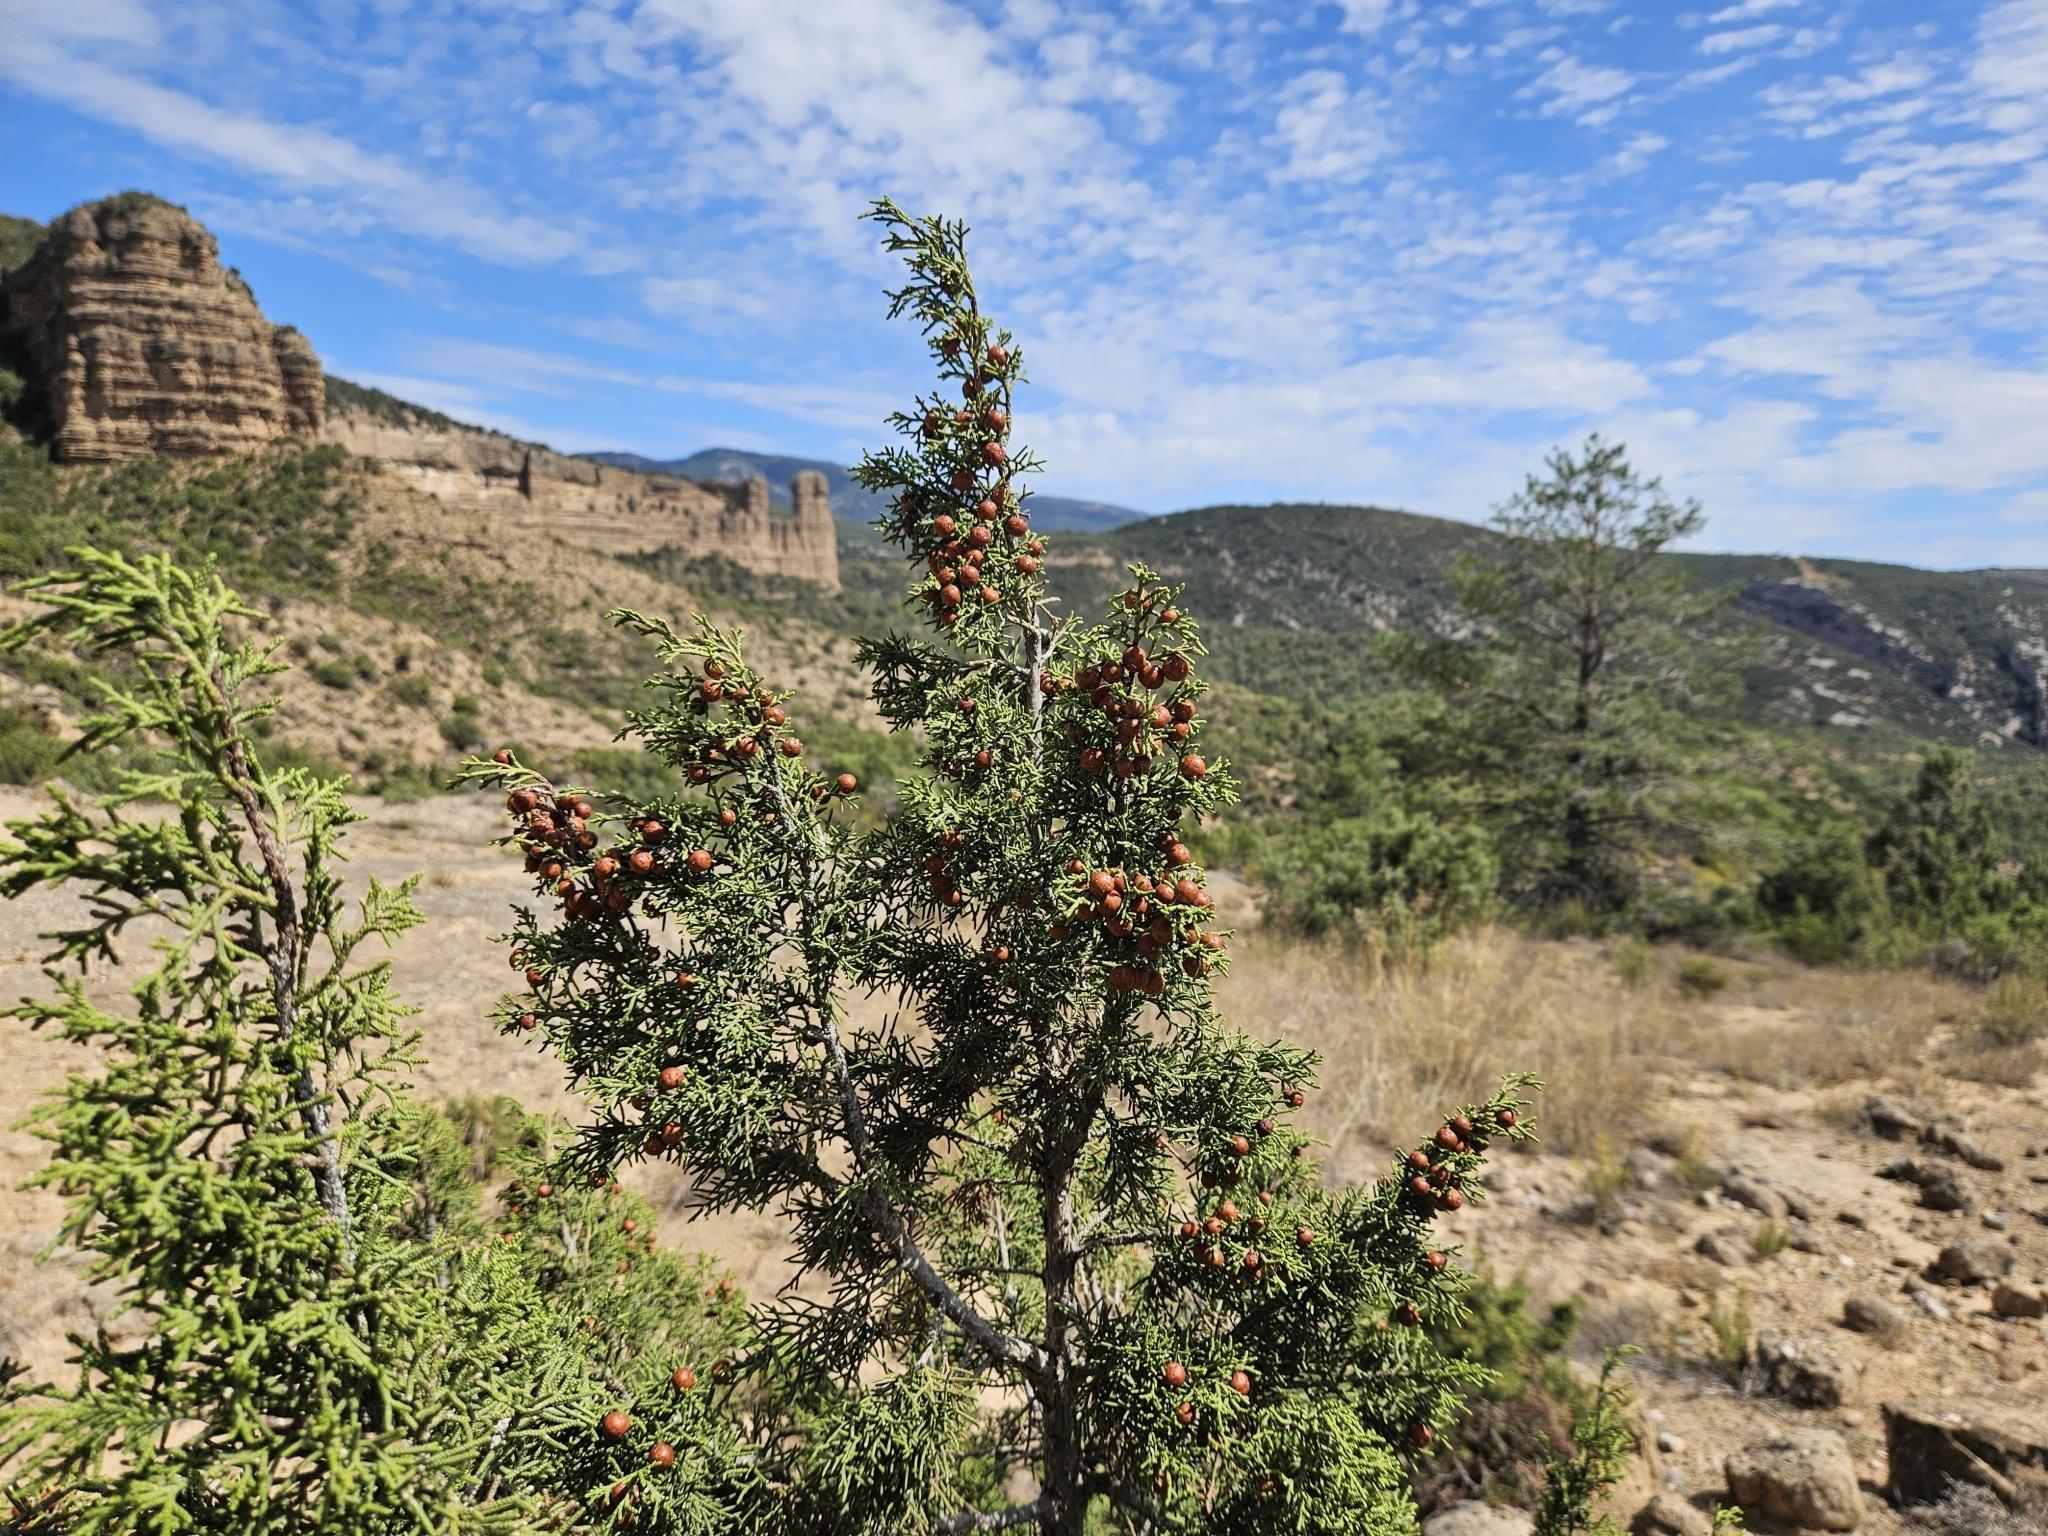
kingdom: Plantae
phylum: Tracheophyta
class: Pinopsida
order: Pinales
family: Cupressaceae
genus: Juniperus
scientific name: Juniperus phoenicea
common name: Phoenician juniper
